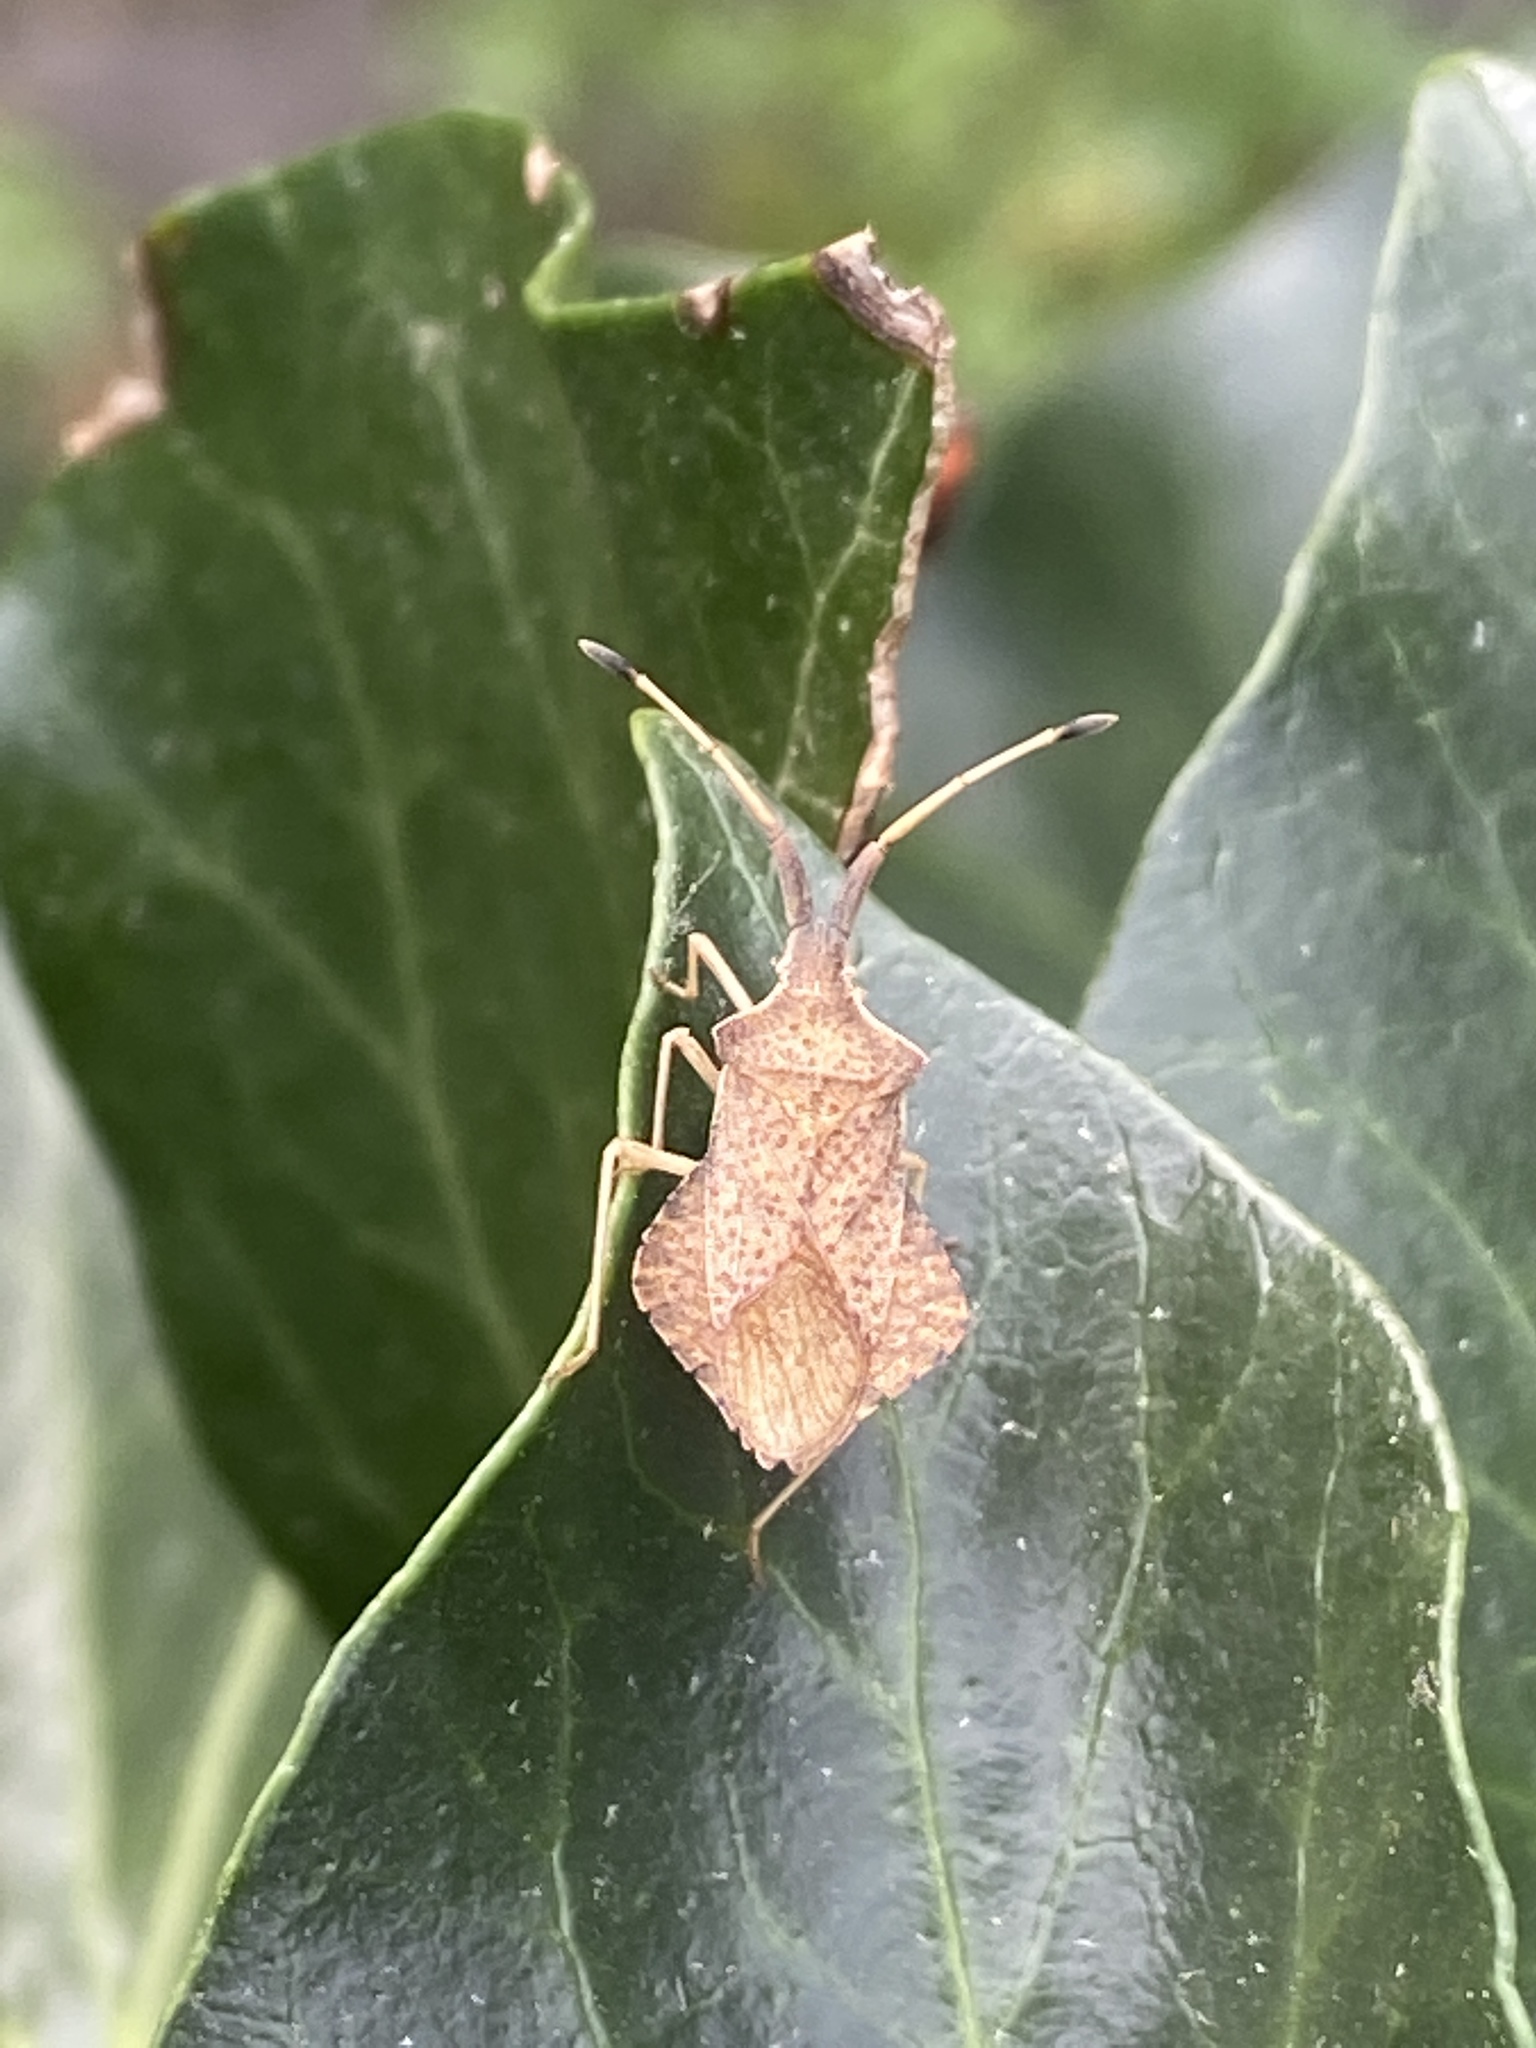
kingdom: Animalia
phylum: Arthropoda
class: Insecta
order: Hemiptera
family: Coreidae
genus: Syromastus
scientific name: Syromastus rhombeus
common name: Rhombic leatherbug
